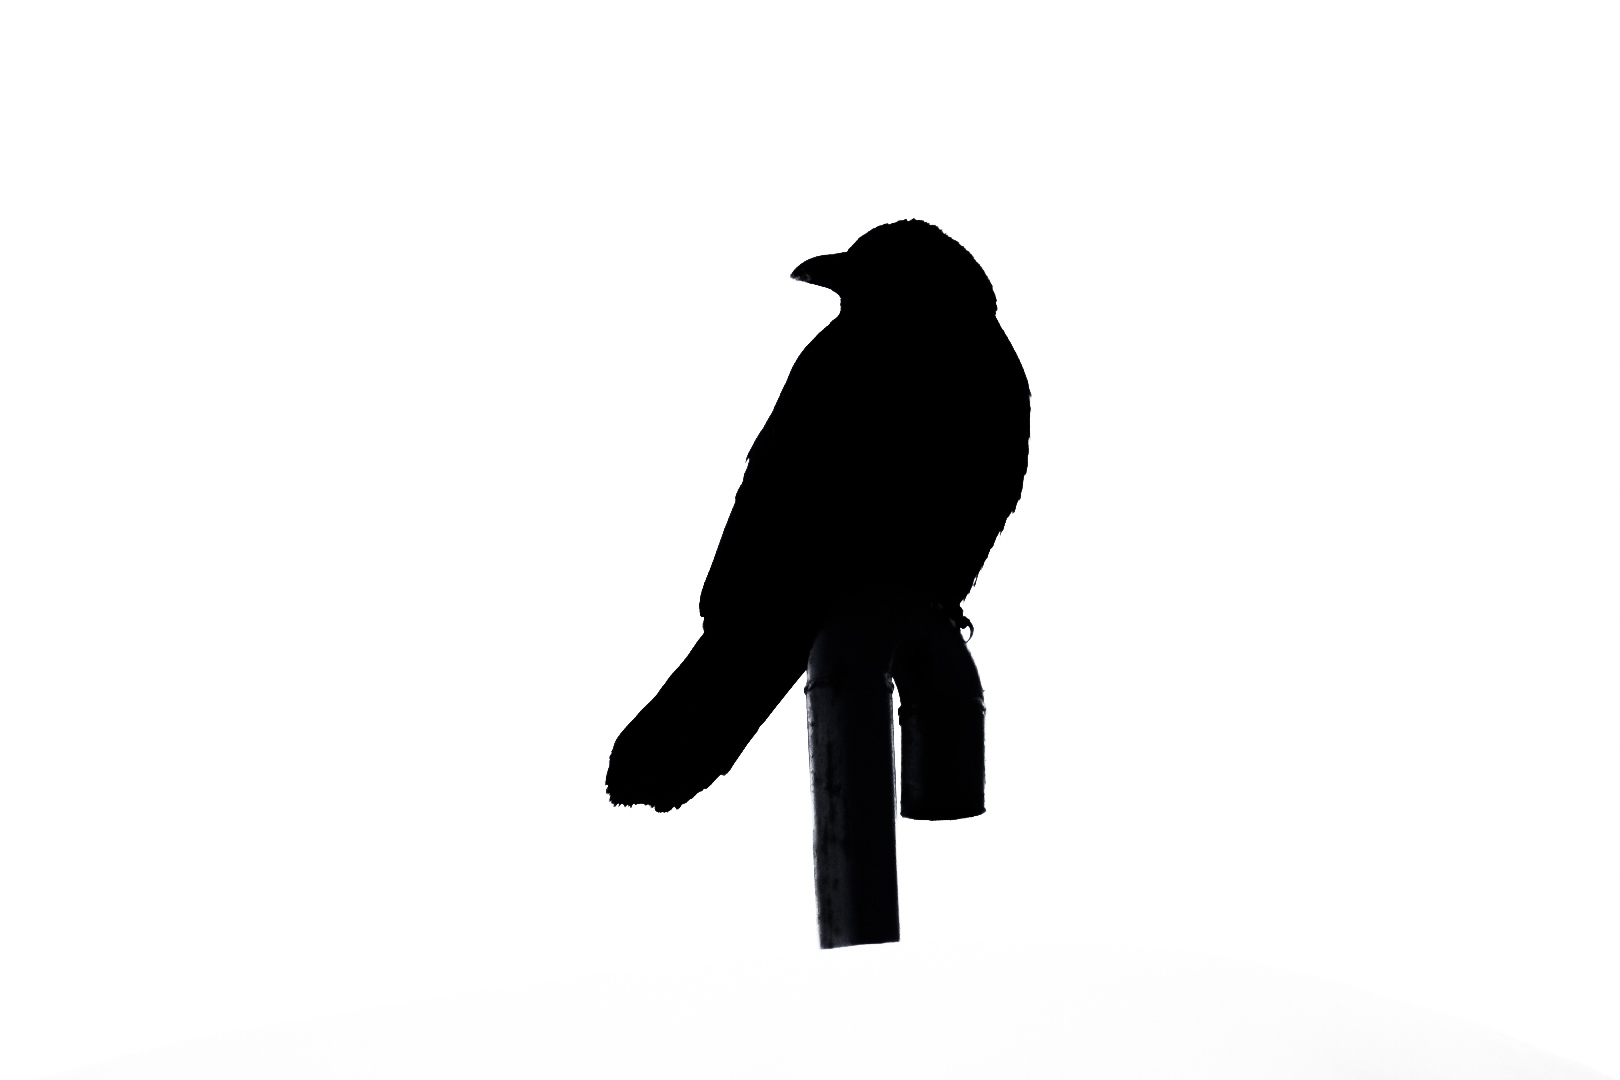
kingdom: Animalia
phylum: Chordata
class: Aves
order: Passeriformes
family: Corvidae
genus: Corvus
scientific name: Corvus corone
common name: Carrion crow
